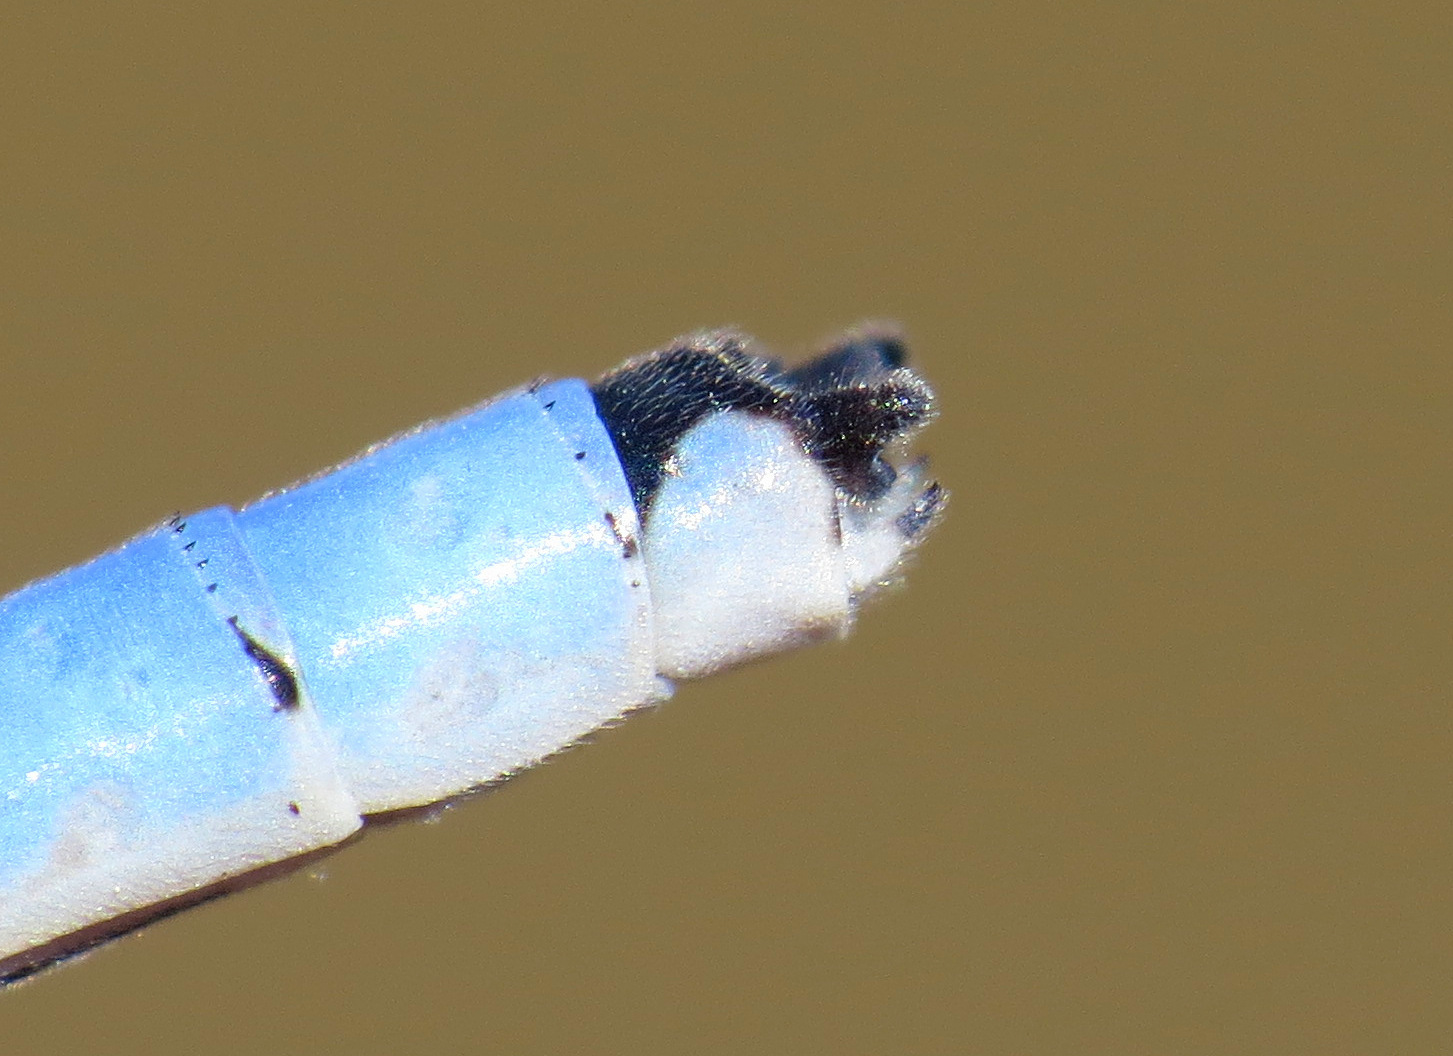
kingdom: Animalia
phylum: Arthropoda
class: Insecta
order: Odonata
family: Coenagrionidae
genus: Enallagma
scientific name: Enallagma praevarum
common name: Arroyo bluet
